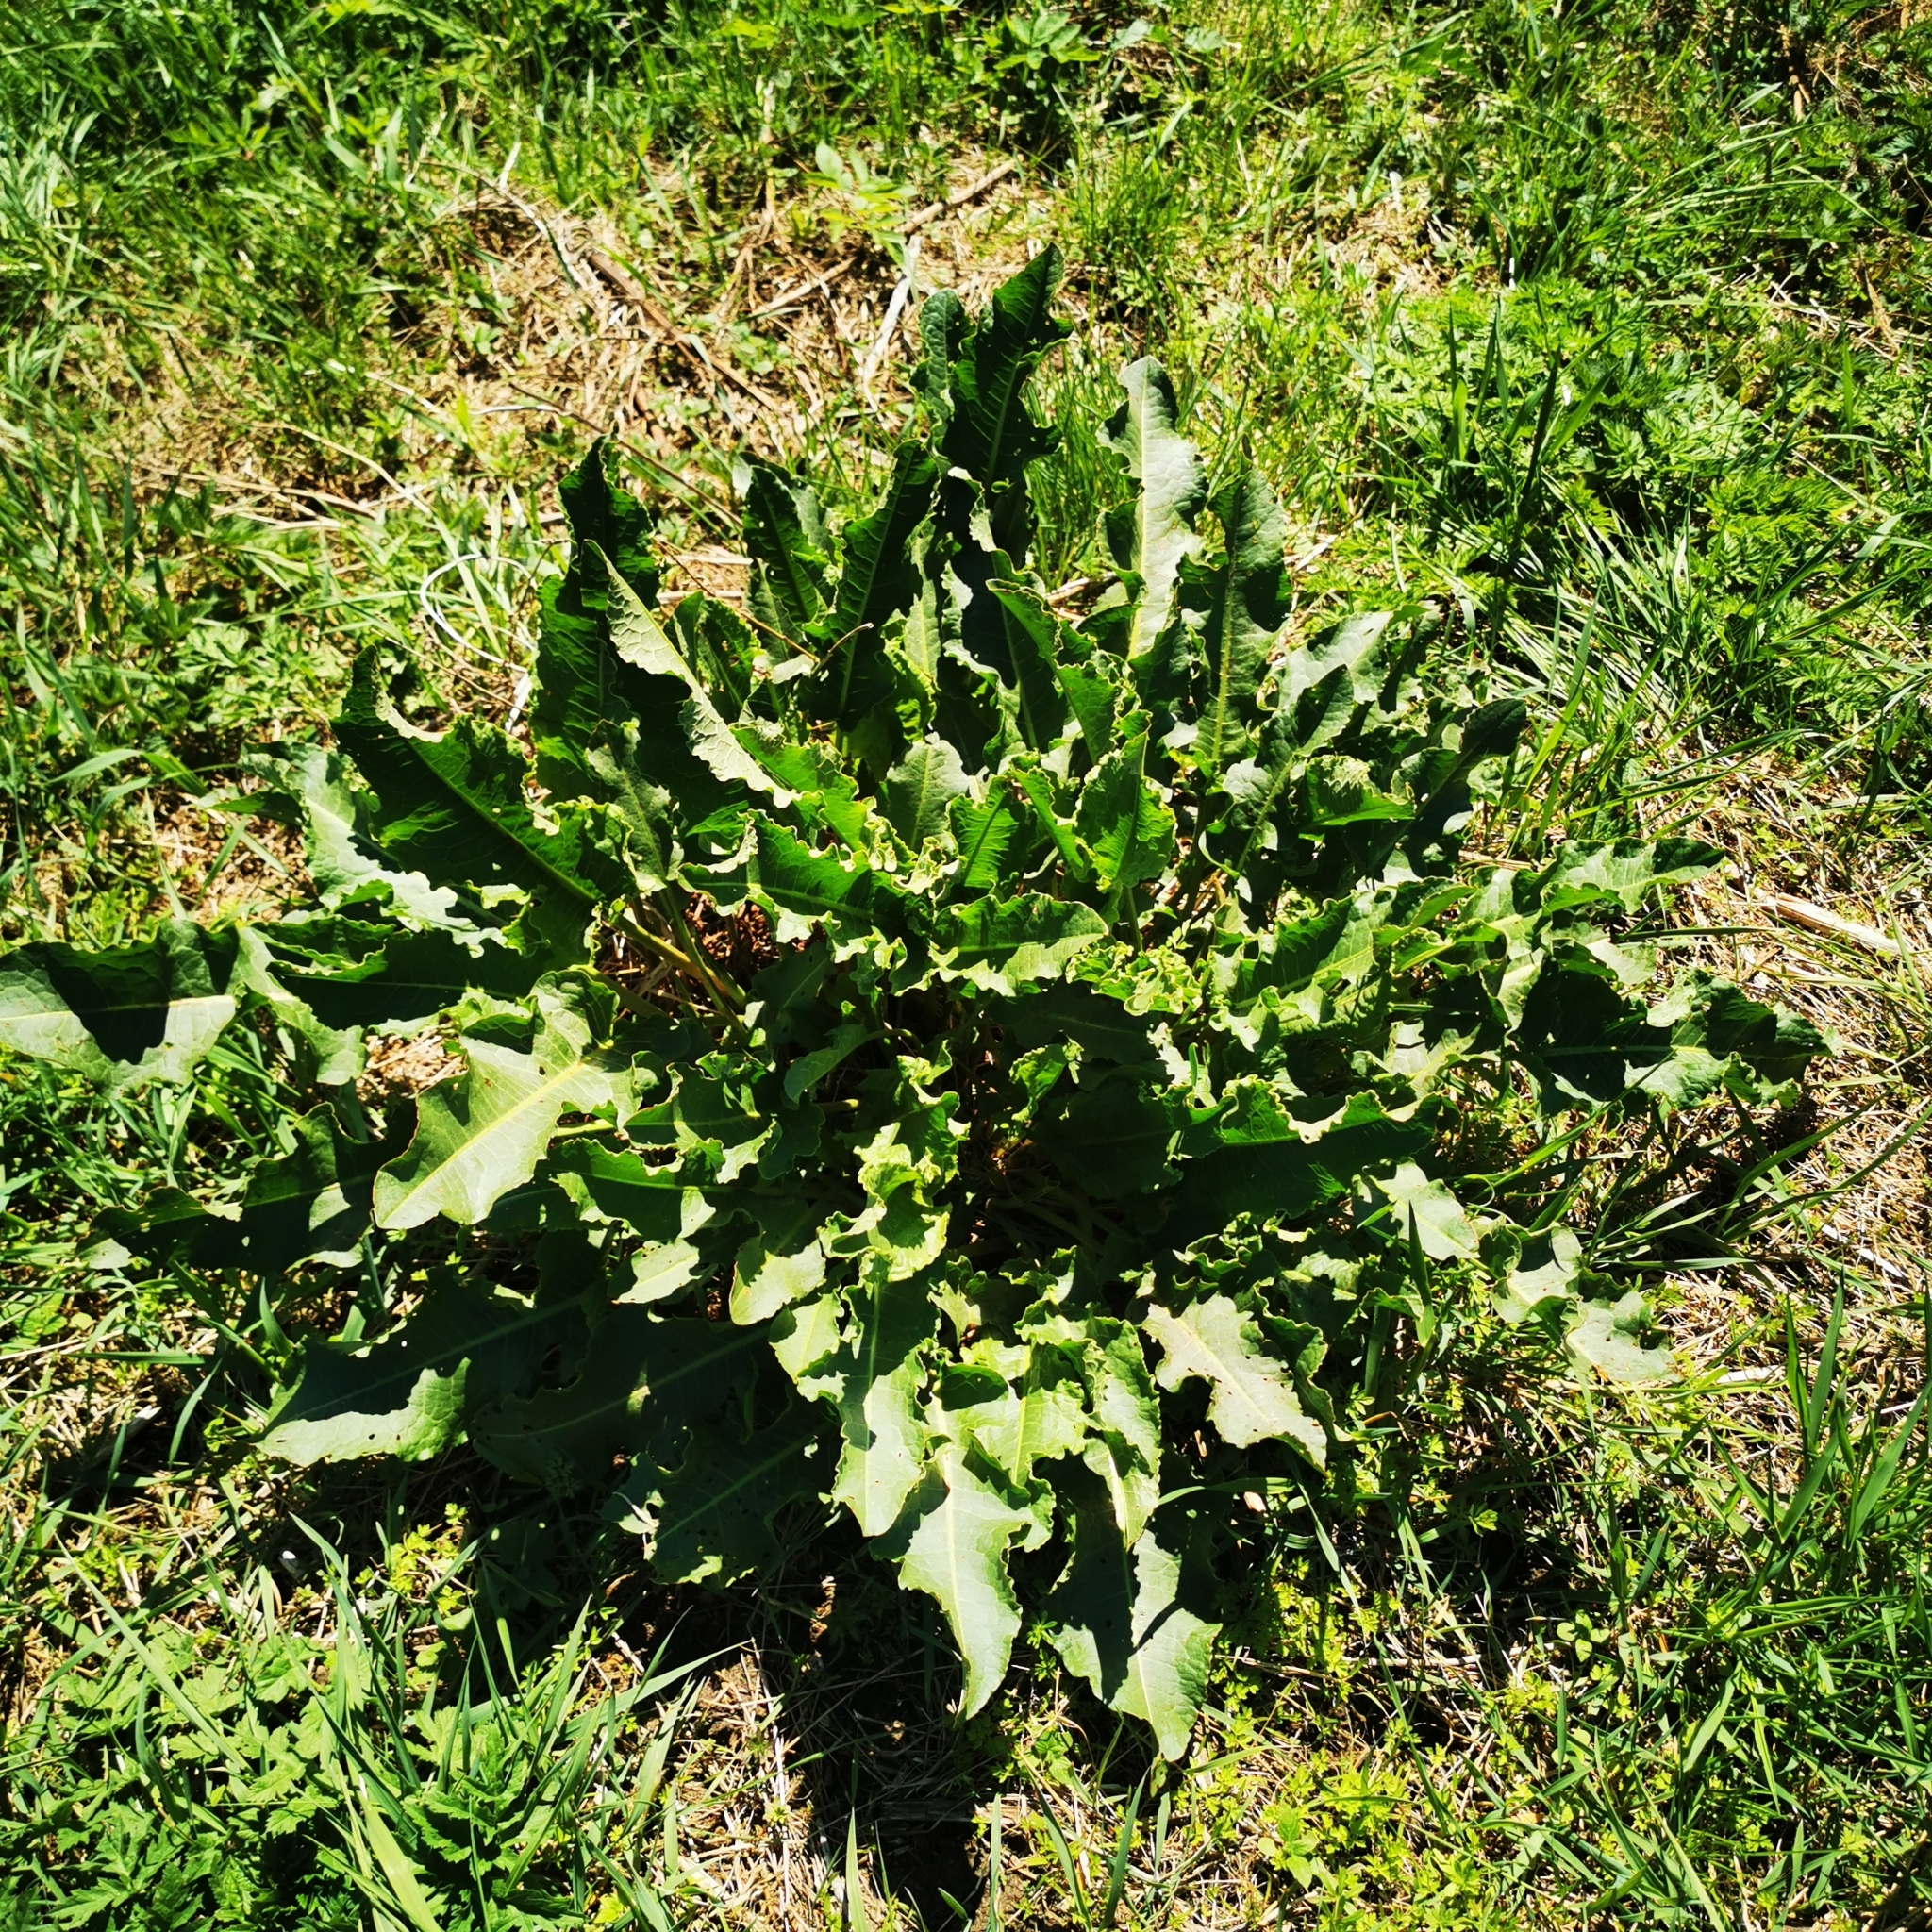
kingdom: Plantae
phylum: Tracheophyta
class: Magnoliopsida
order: Caryophyllales
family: Polygonaceae
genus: Rumex
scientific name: Rumex crispus
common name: Curled dock
